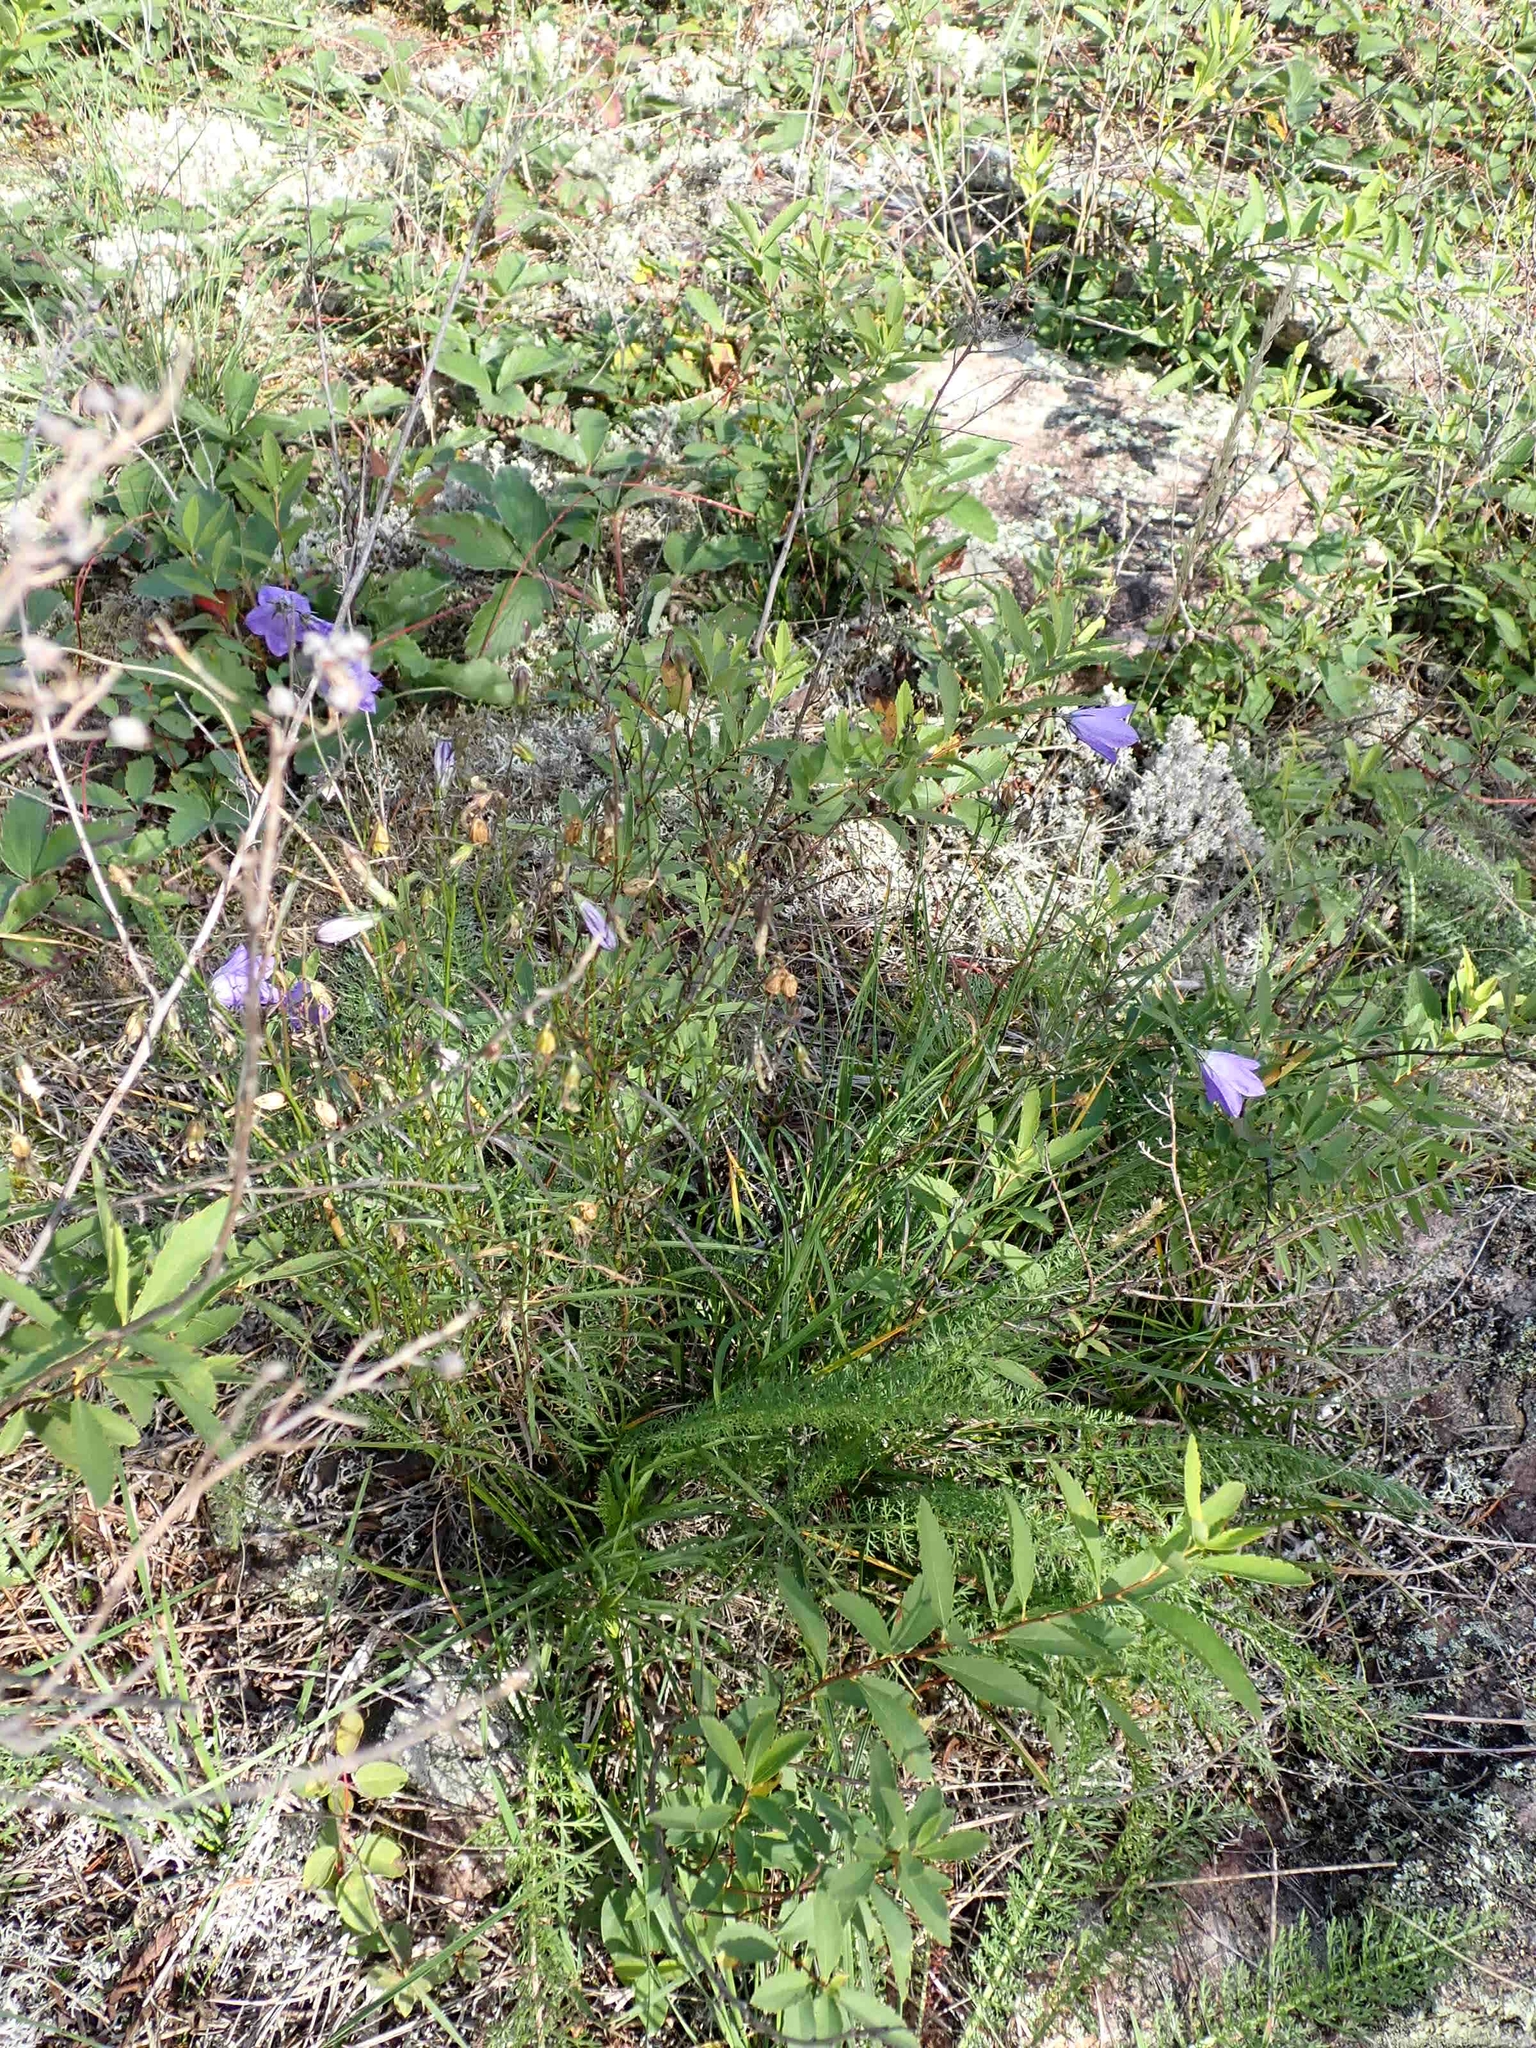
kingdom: Plantae
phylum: Tracheophyta
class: Magnoliopsida
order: Asterales
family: Campanulaceae
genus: Campanula
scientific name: Campanula petiolata
